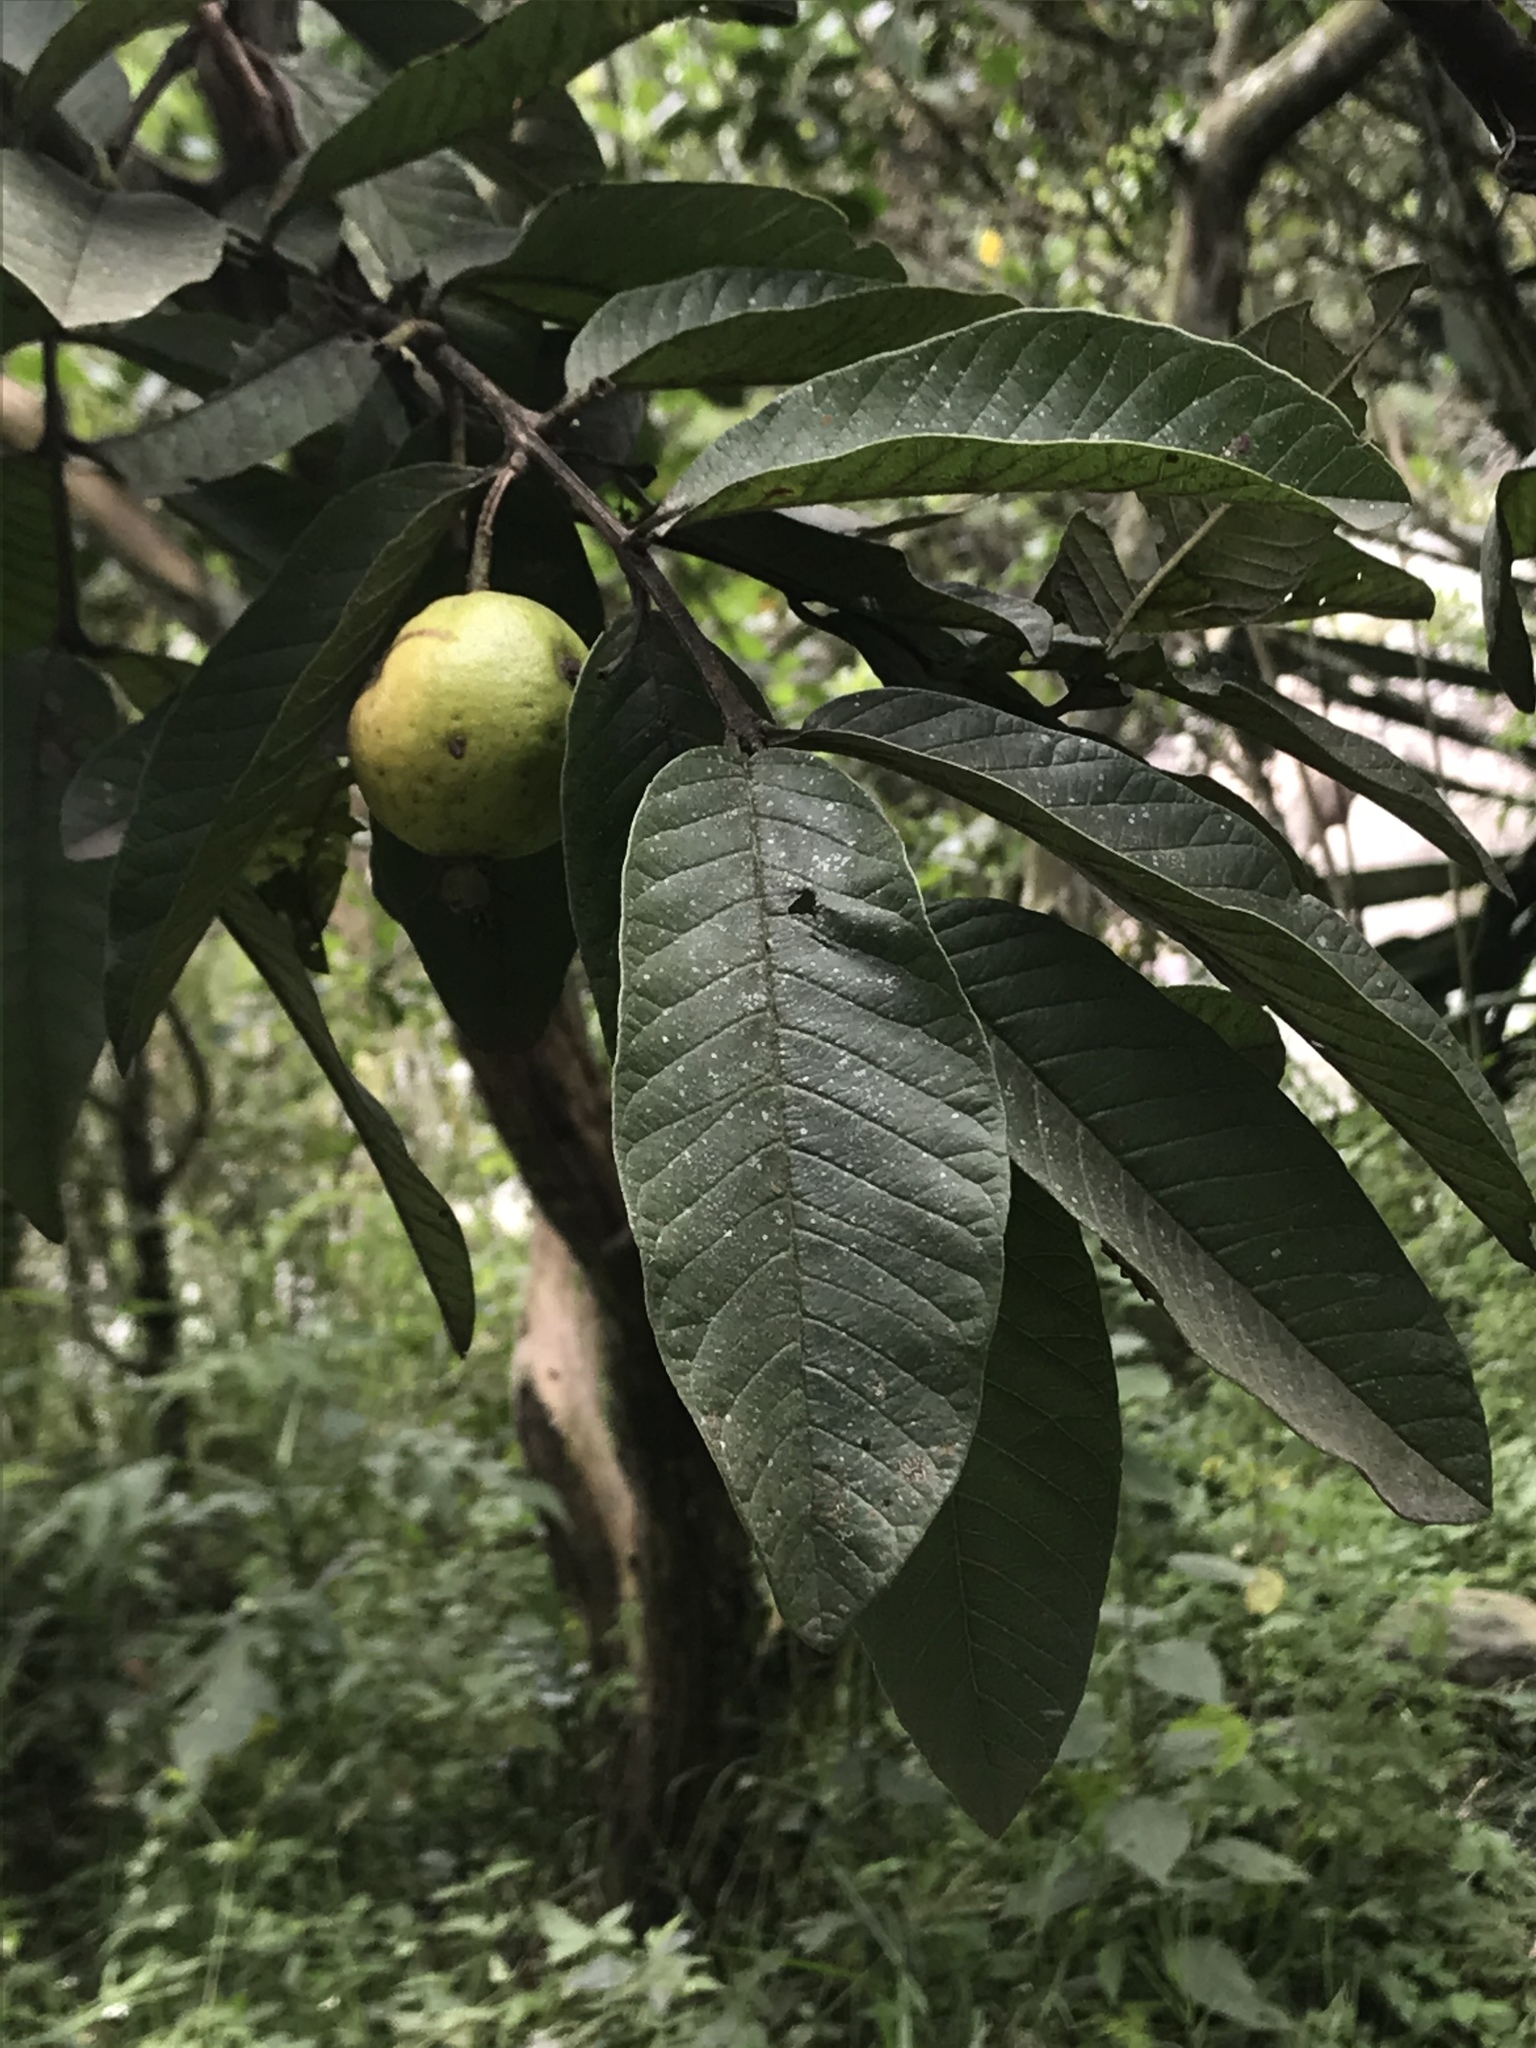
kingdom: Plantae
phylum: Tracheophyta
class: Magnoliopsida
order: Myrtales
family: Myrtaceae
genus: Psidium
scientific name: Psidium guajava
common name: Guava
